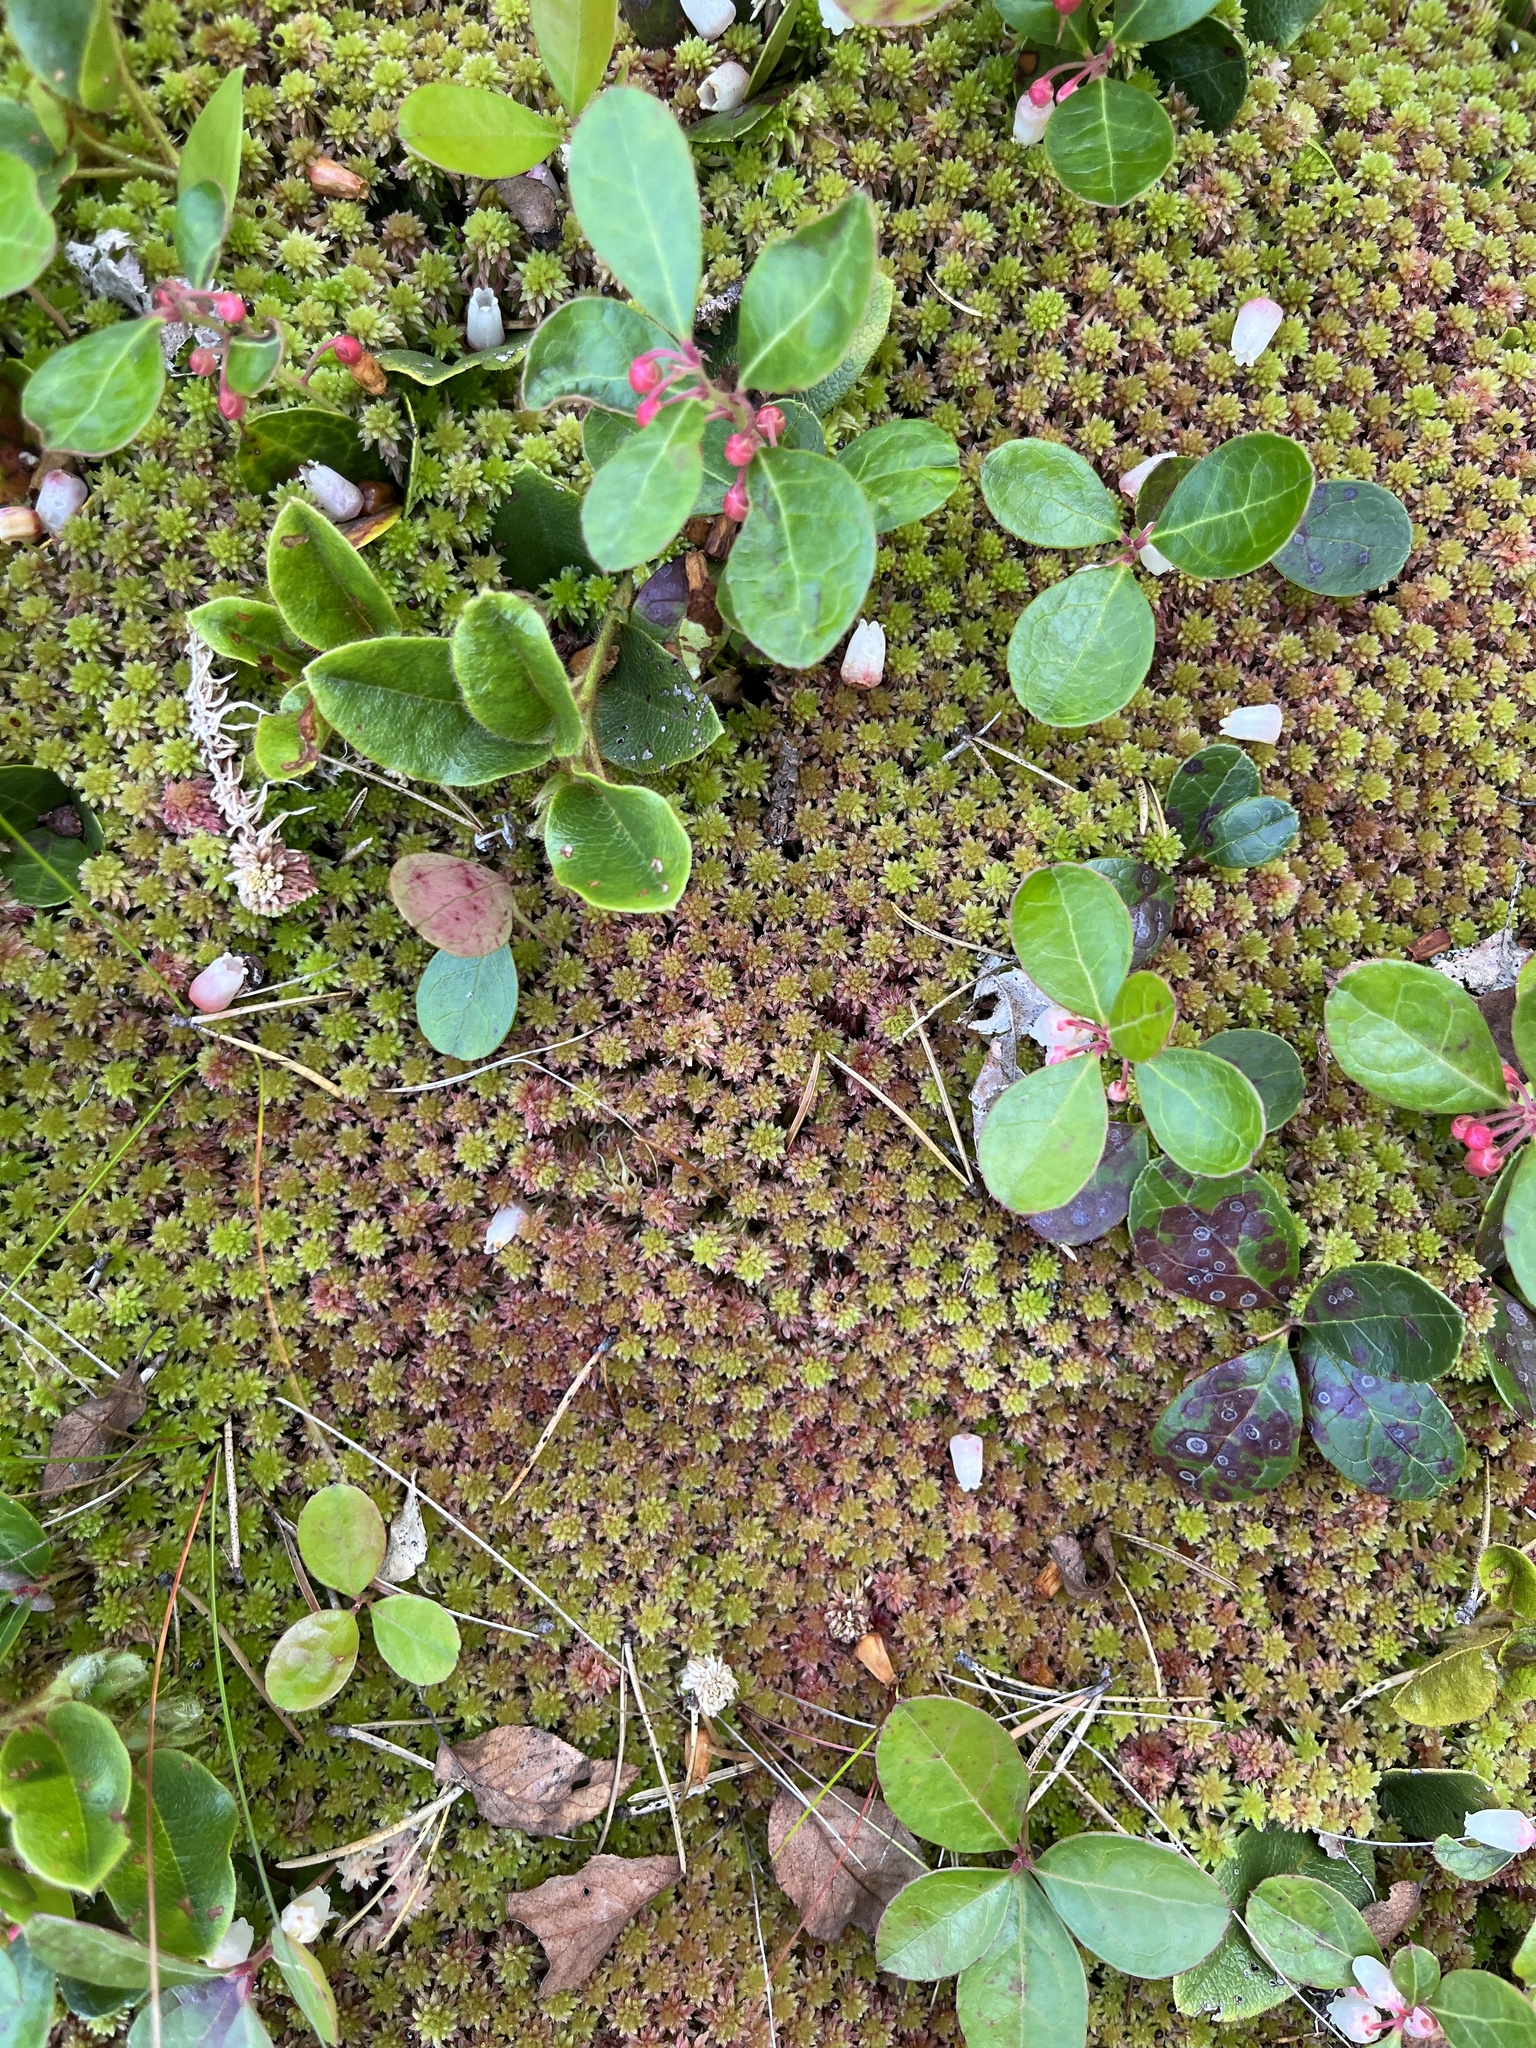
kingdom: Plantae
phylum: Tracheophyta
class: Magnoliopsida
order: Ericales
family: Ericaceae
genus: Gaultheria
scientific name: Gaultheria procumbens
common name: Checkerberry
